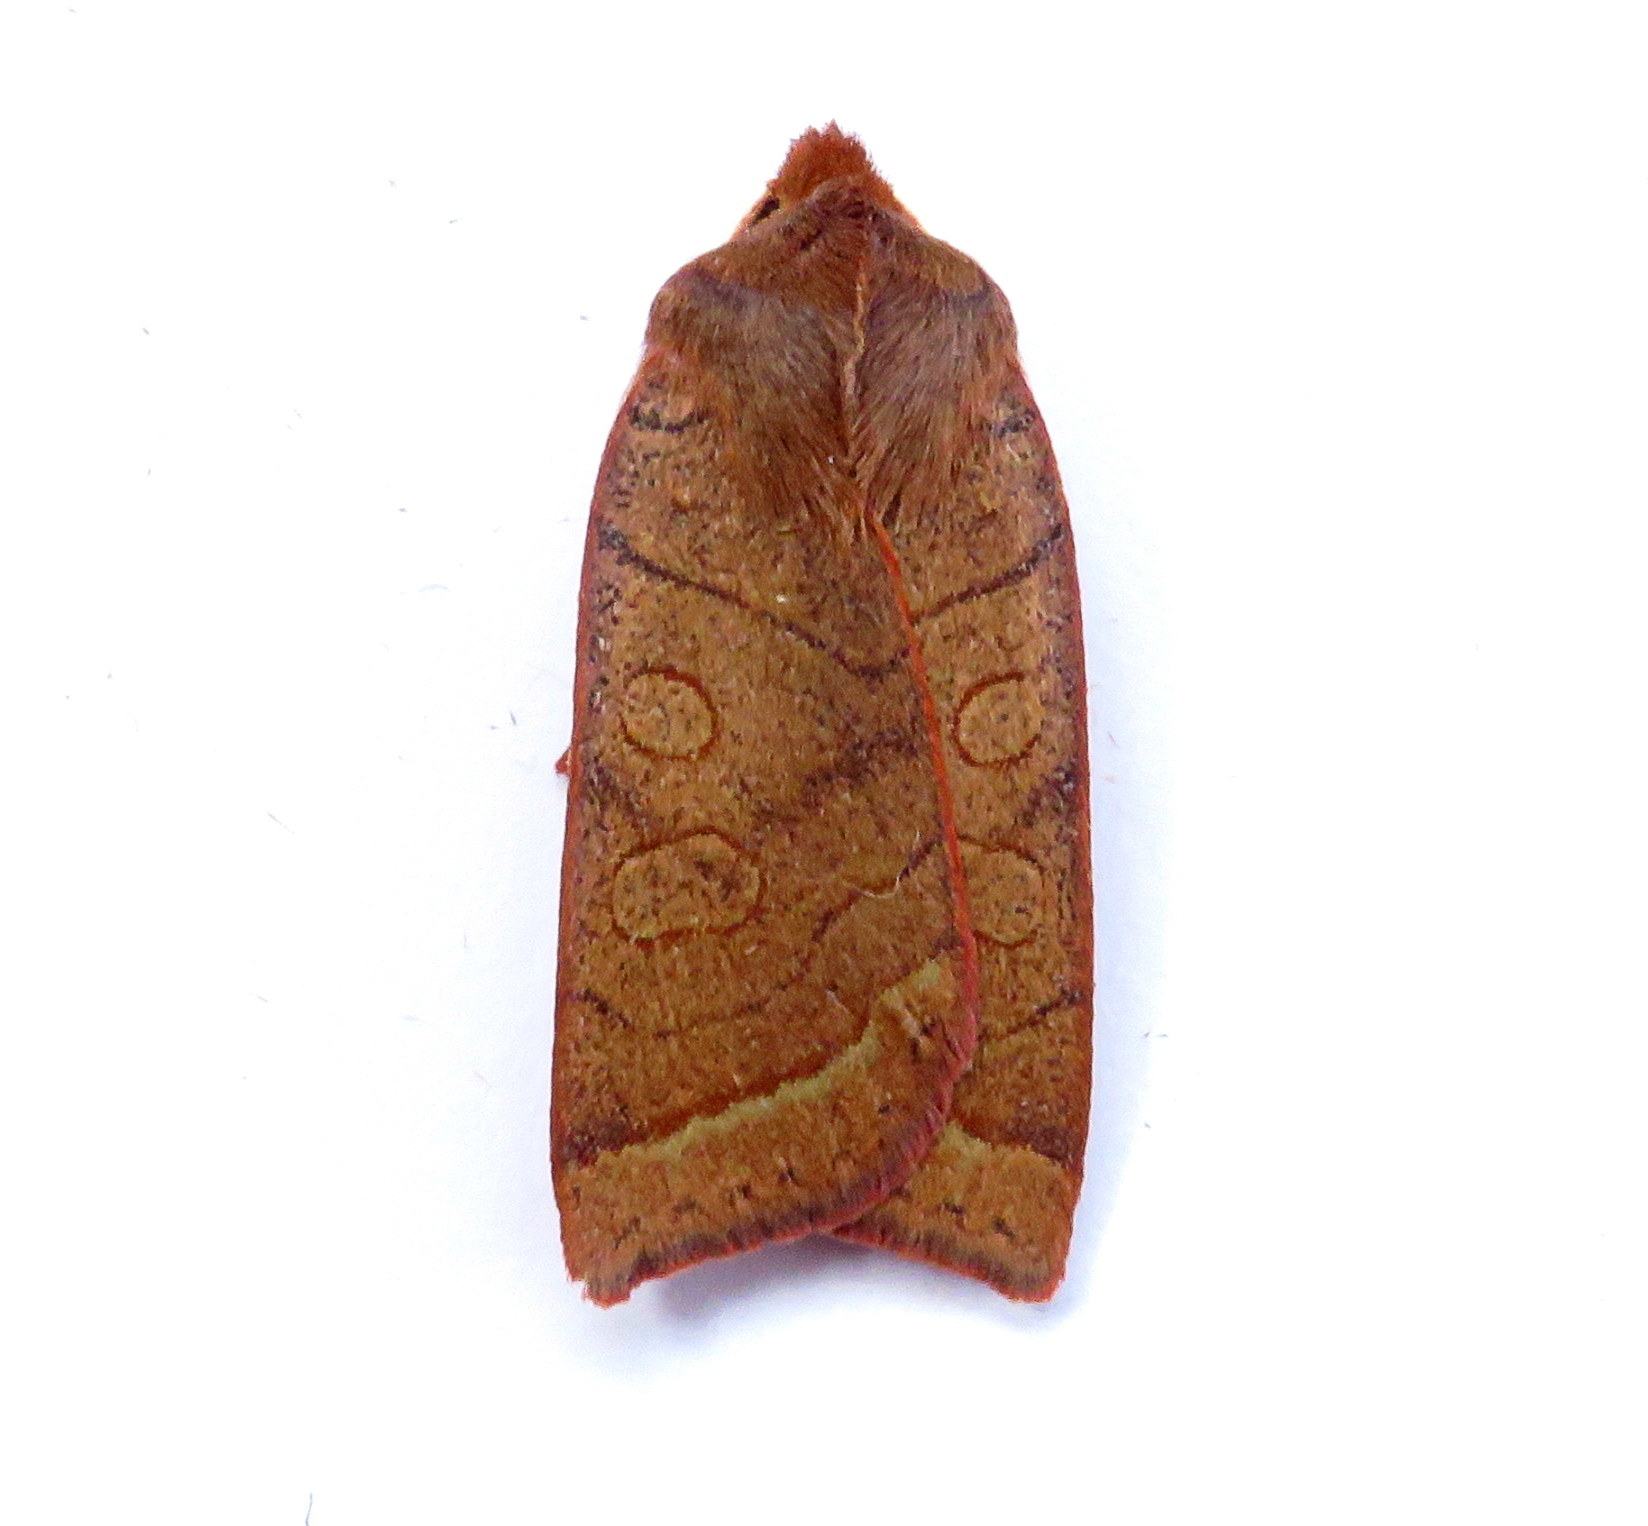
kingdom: Animalia
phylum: Arthropoda
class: Insecta
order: Lepidoptera
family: Noctuidae
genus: Epiglaea
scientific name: Epiglaea apiata
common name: Pointed sallow
